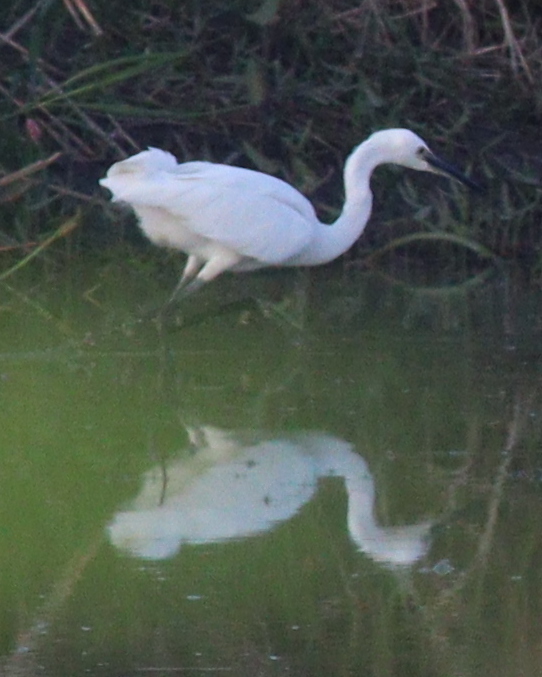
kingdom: Animalia
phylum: Chordata
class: Aves
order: Pelecaniformes
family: Ardeidae
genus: Egretta
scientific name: Egretta garzetta
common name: Little egret
